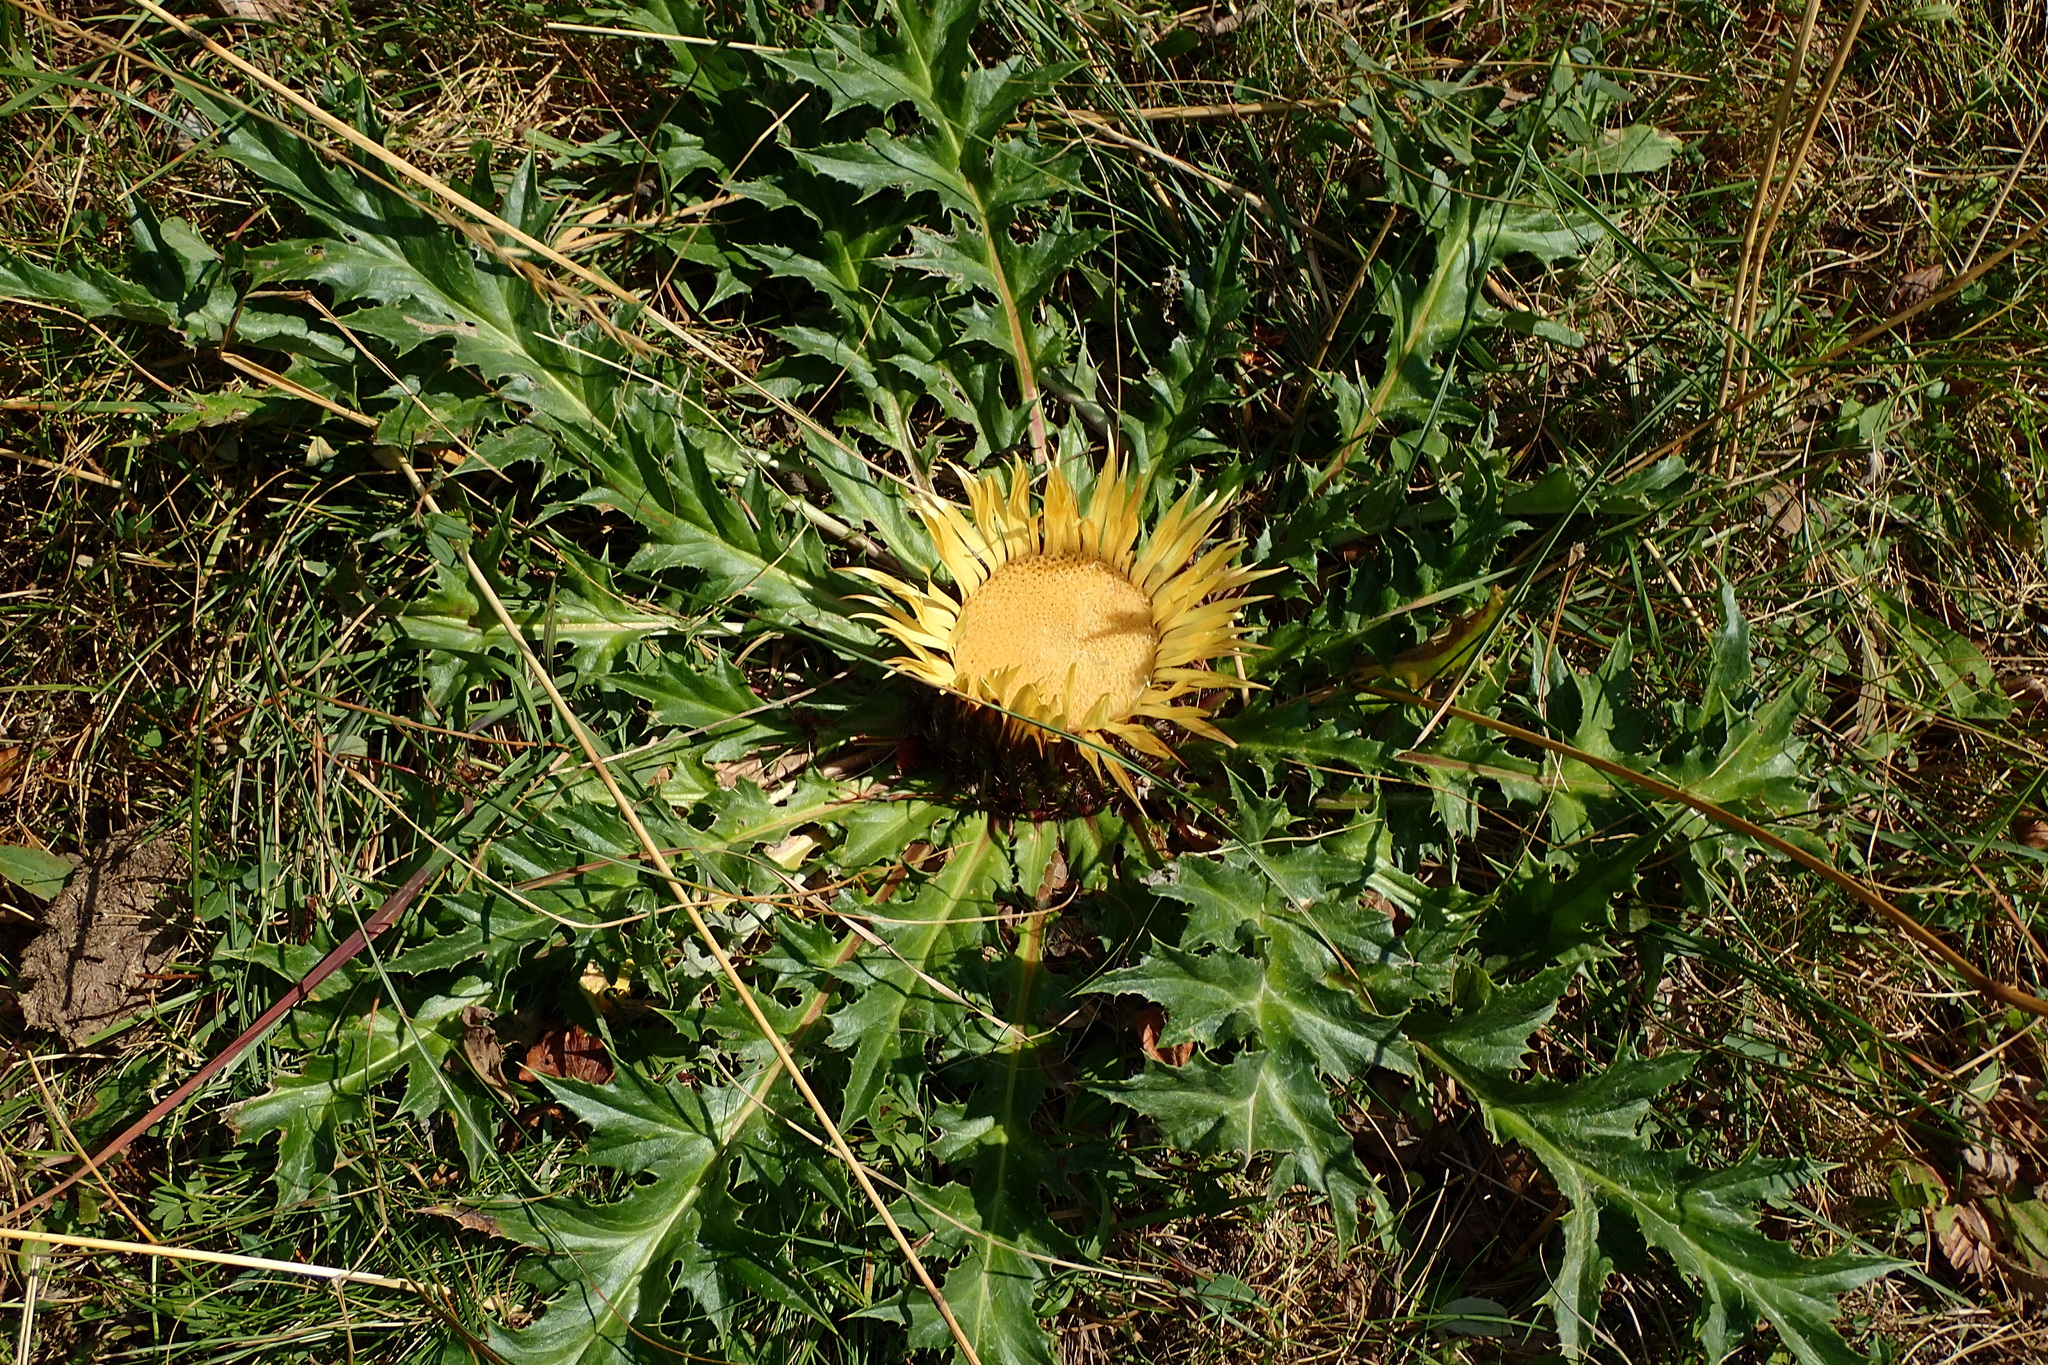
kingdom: Plantae
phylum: Tracheophyta
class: Magnoliopsida
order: Asterales
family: Asteraceae
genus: Carlina
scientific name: Carlina acanthifolia
